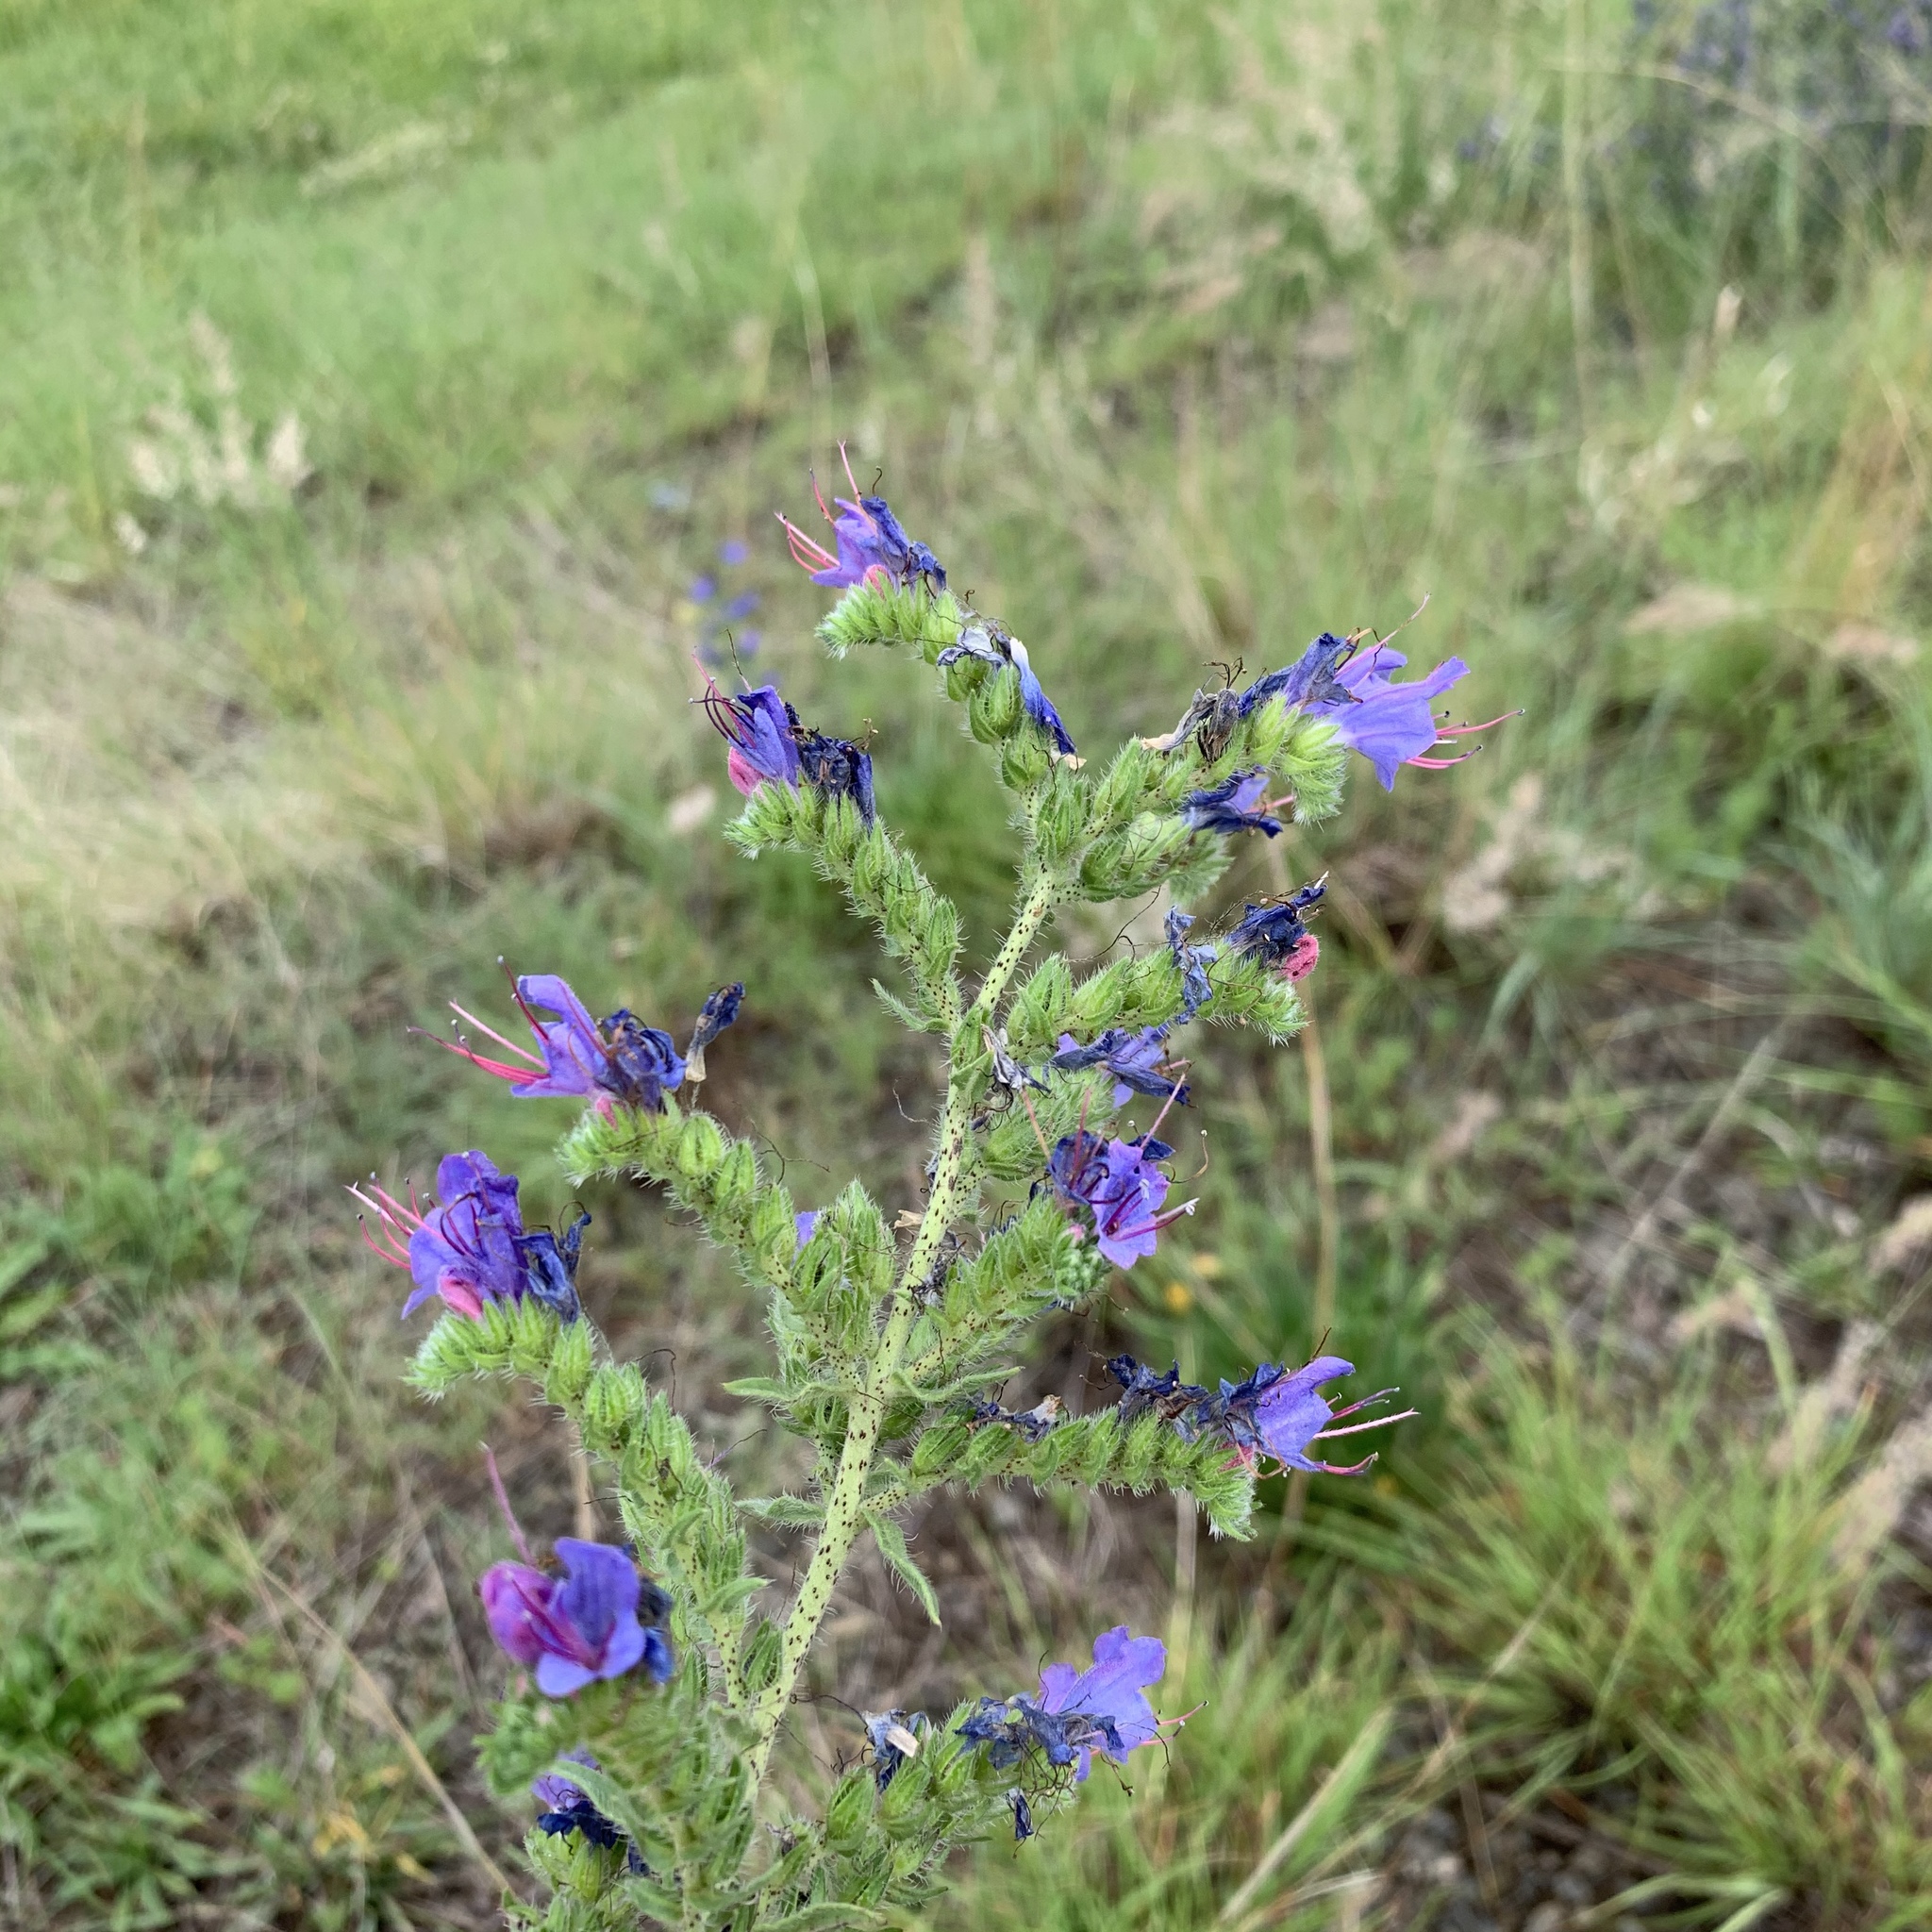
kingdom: Plantae
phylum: Tracheophyta
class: Magnoliopsida
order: Boraginales
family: Boraginaceae
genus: Echium
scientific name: Echium vulgare
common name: Common viper's bugloss
